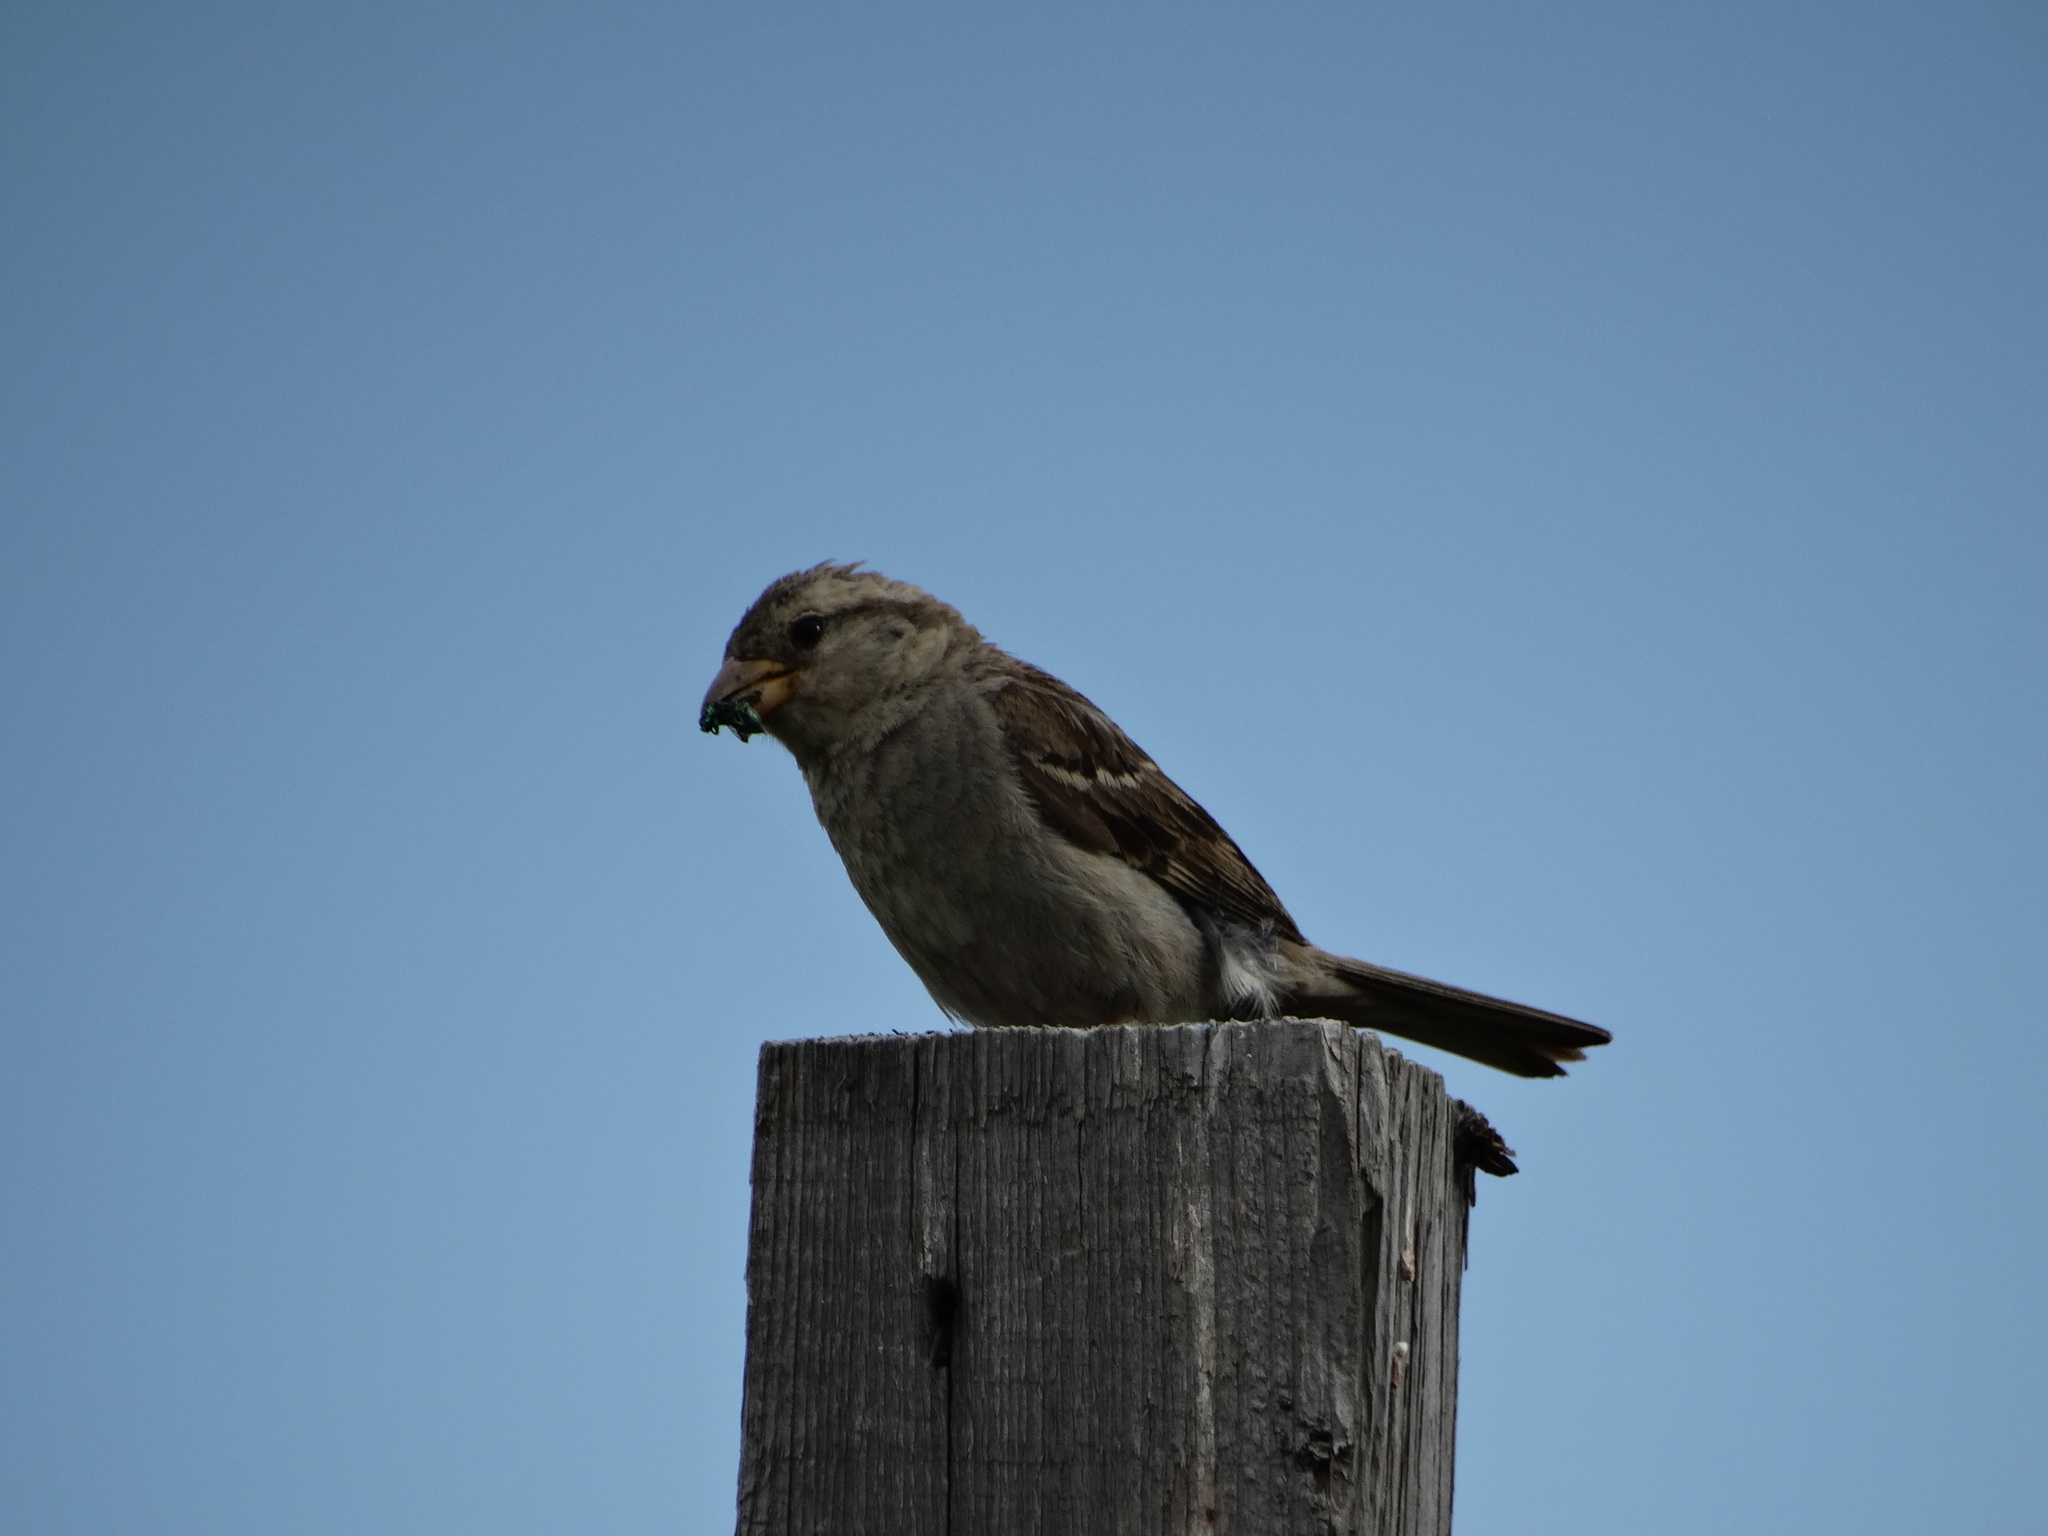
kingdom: Animalia
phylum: Chordata
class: Aves
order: Passeriformes
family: Passeridae
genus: Passer
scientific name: Passer domesticus
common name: House sparrow
